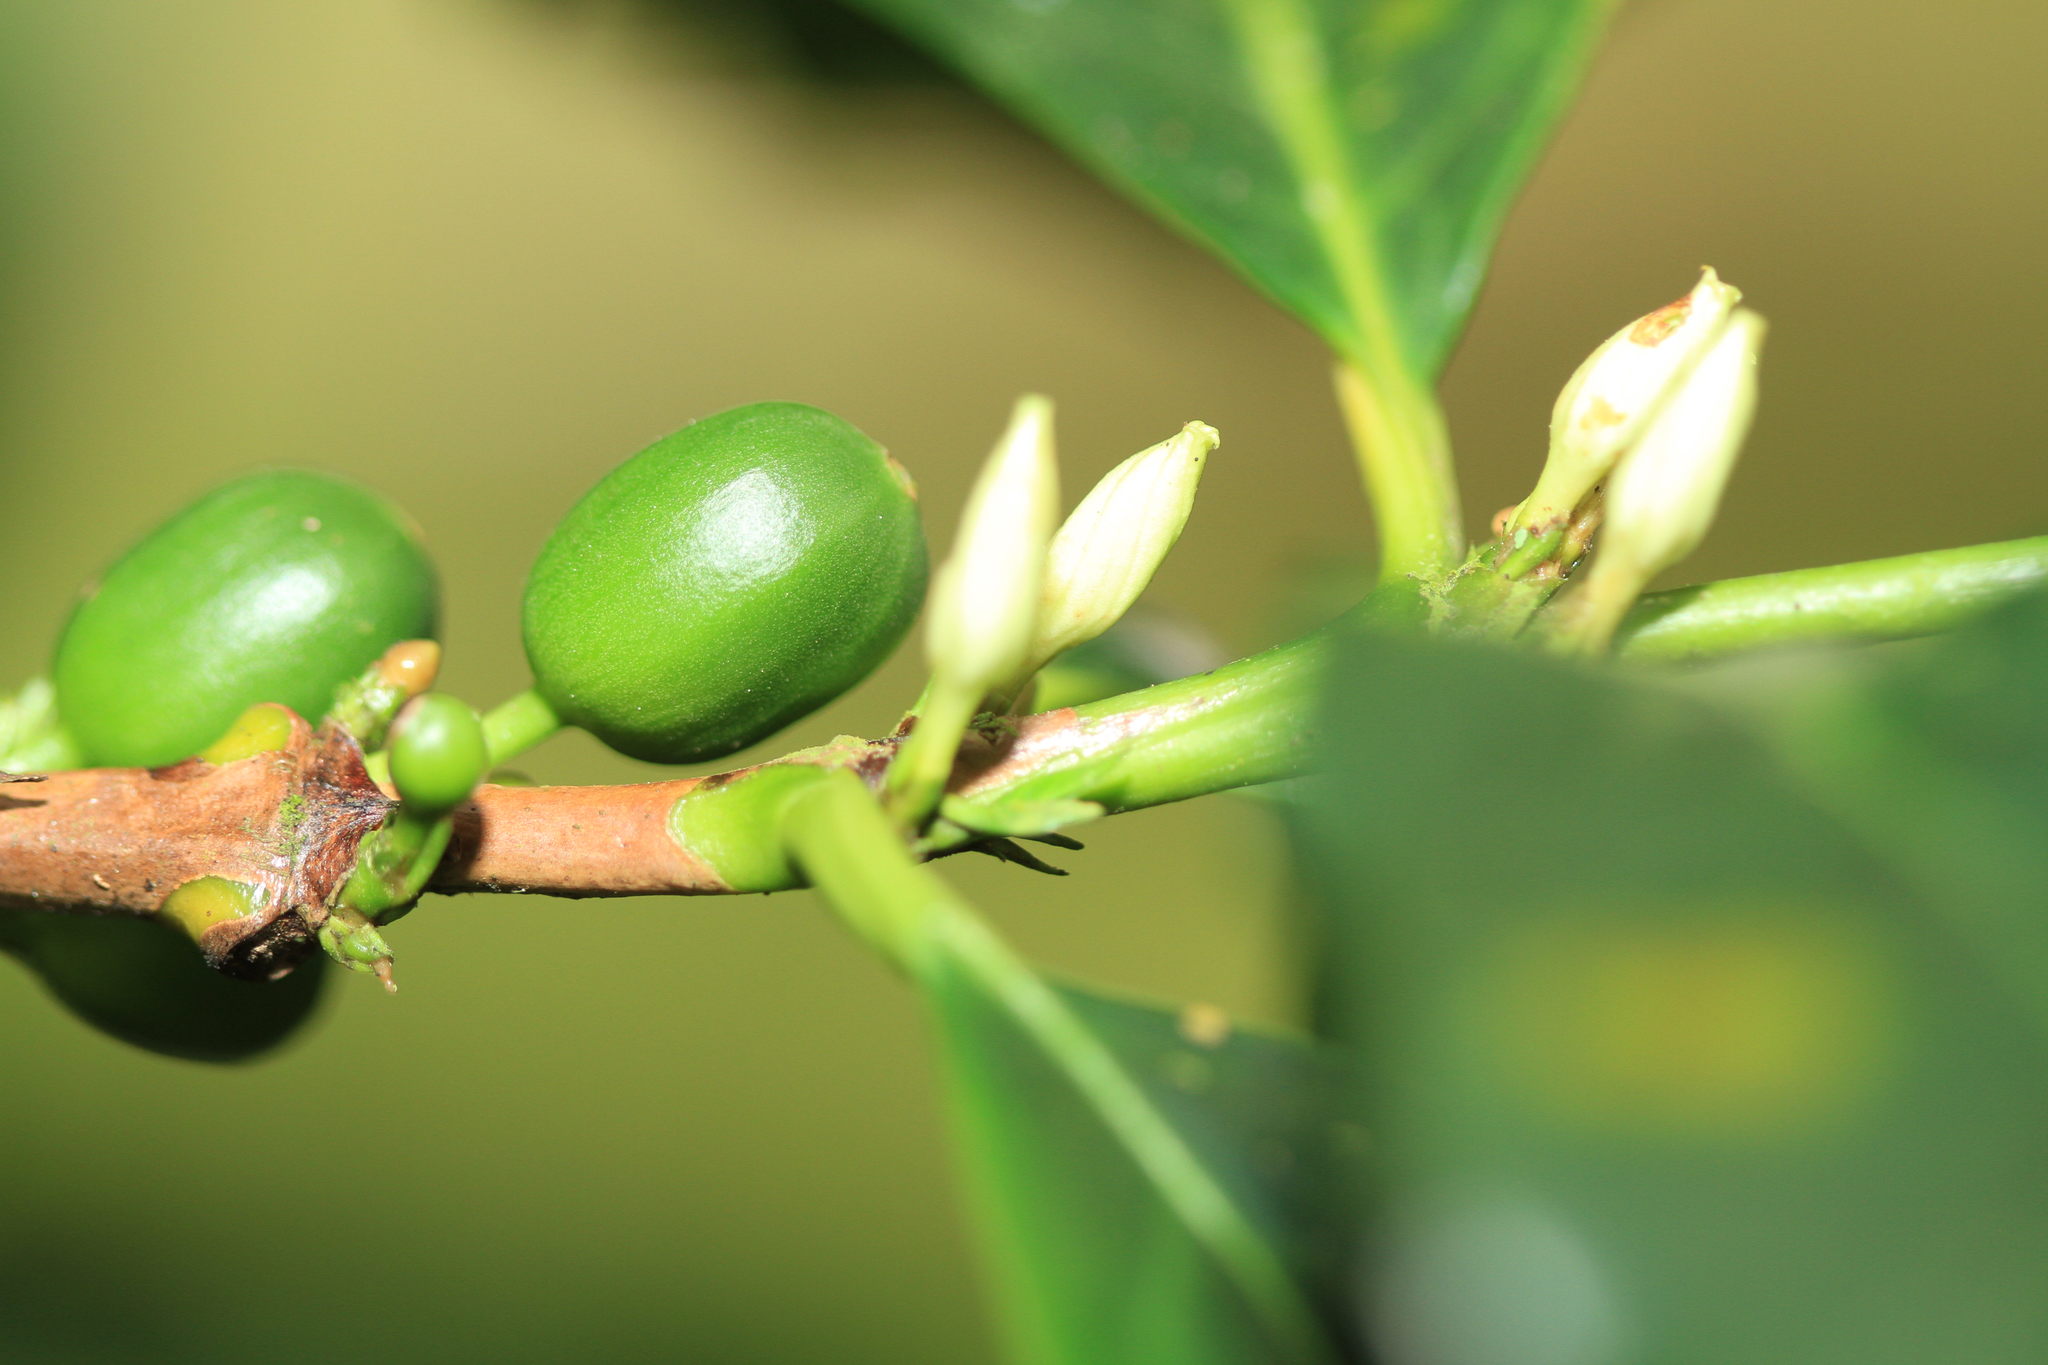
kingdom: Plantae
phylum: Tracheophyta
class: Magnoliopsida
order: Gentianales
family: Rubiaceae
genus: Coffea
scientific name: Coffea arabica
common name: Coffee
